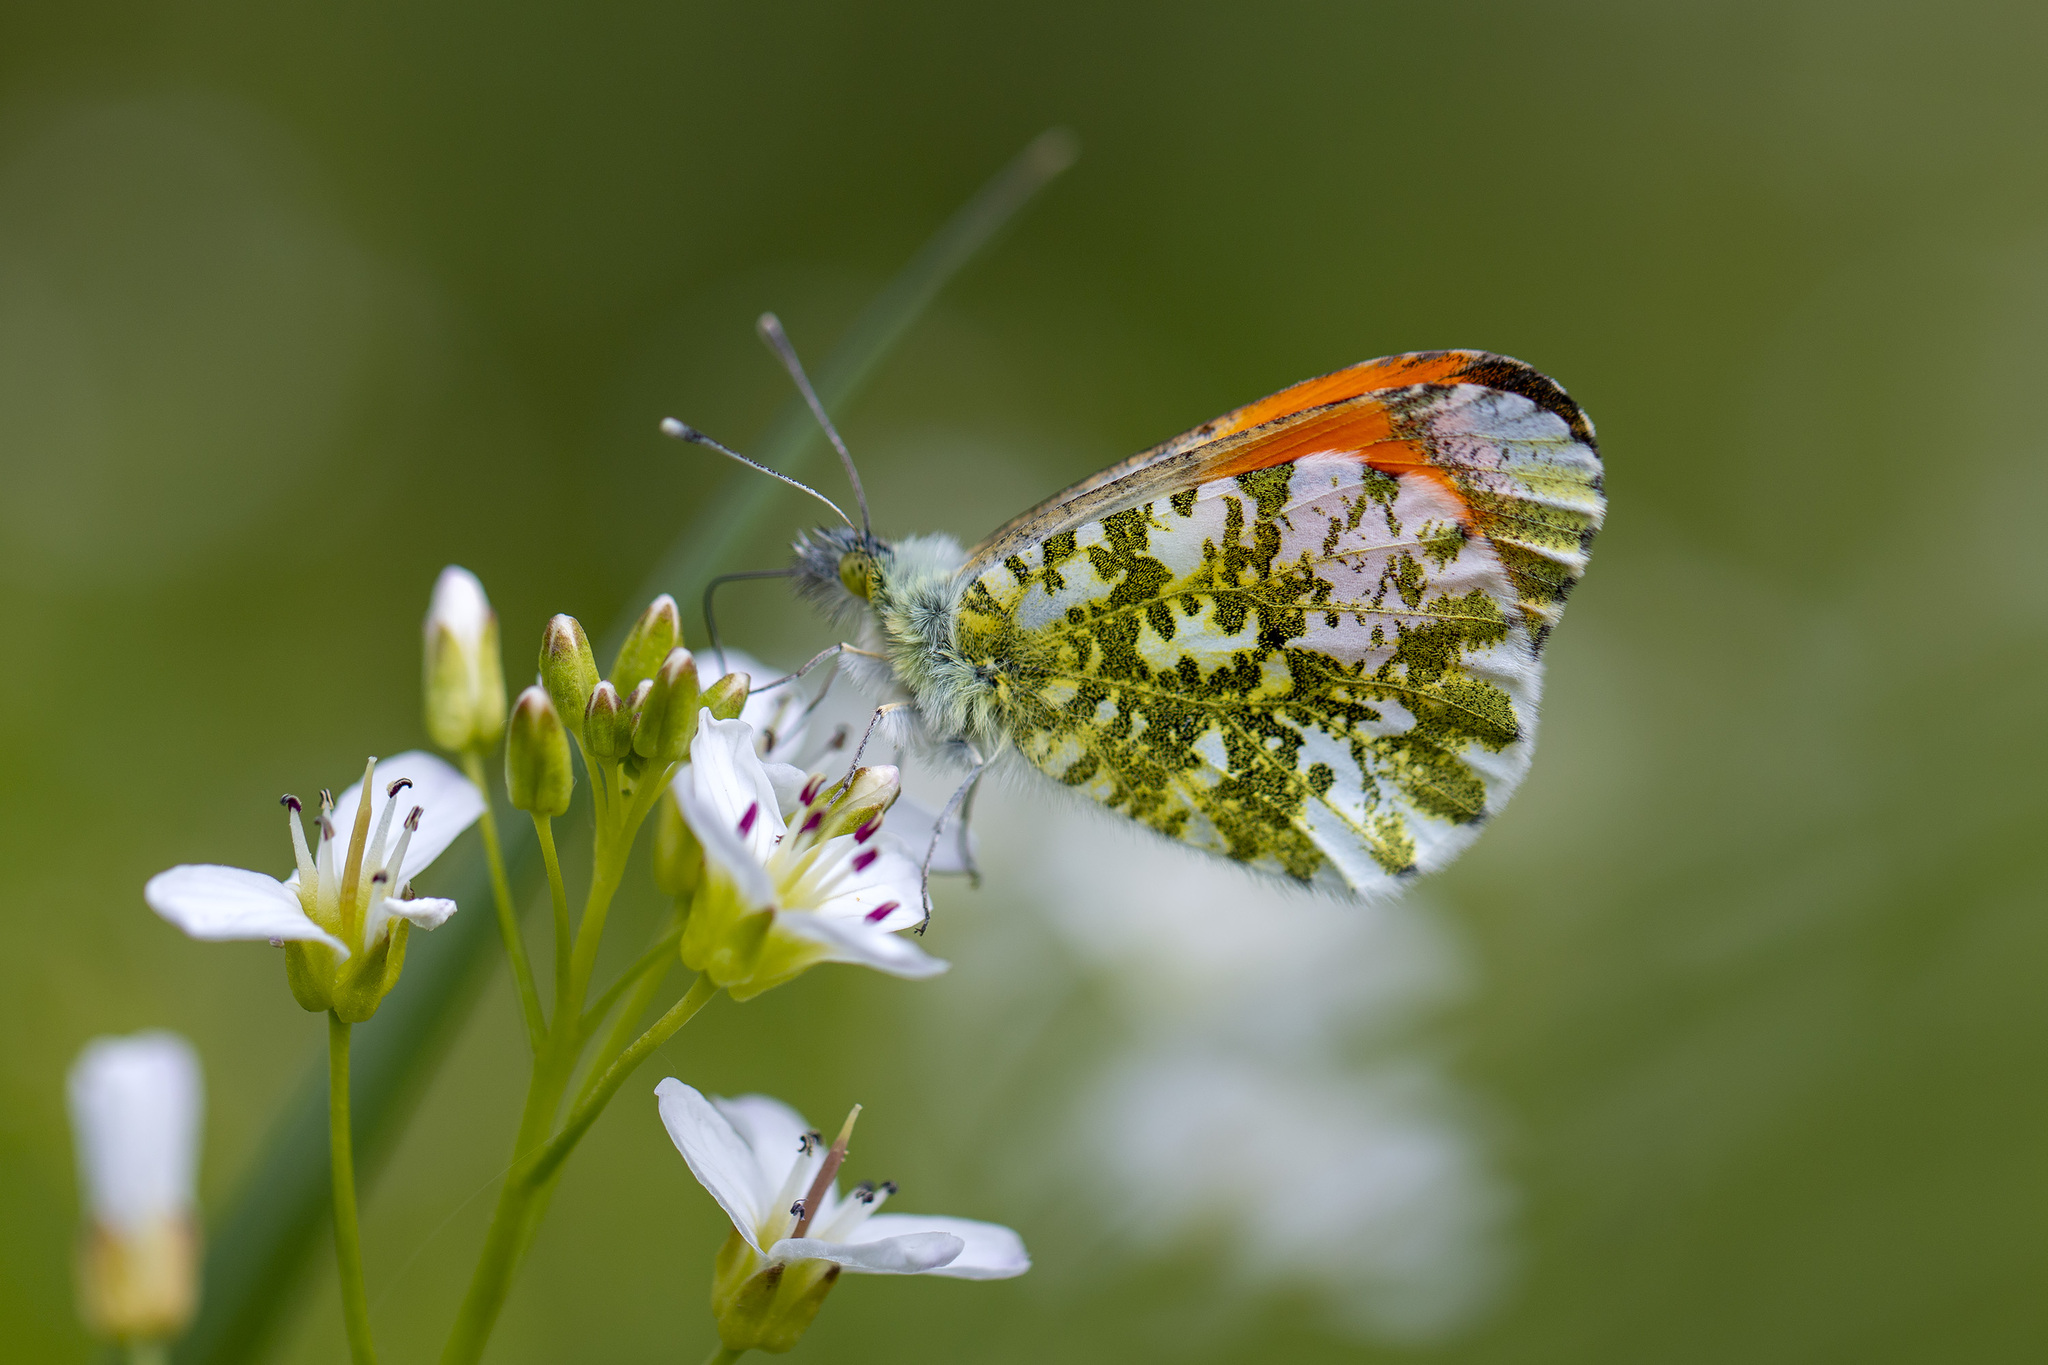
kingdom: Animalia
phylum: Arthropoda
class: Insecta
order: Lepidoptera
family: Pieridae
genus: Anthocharis
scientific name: Anthocharis cardamines
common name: Orange-tip
